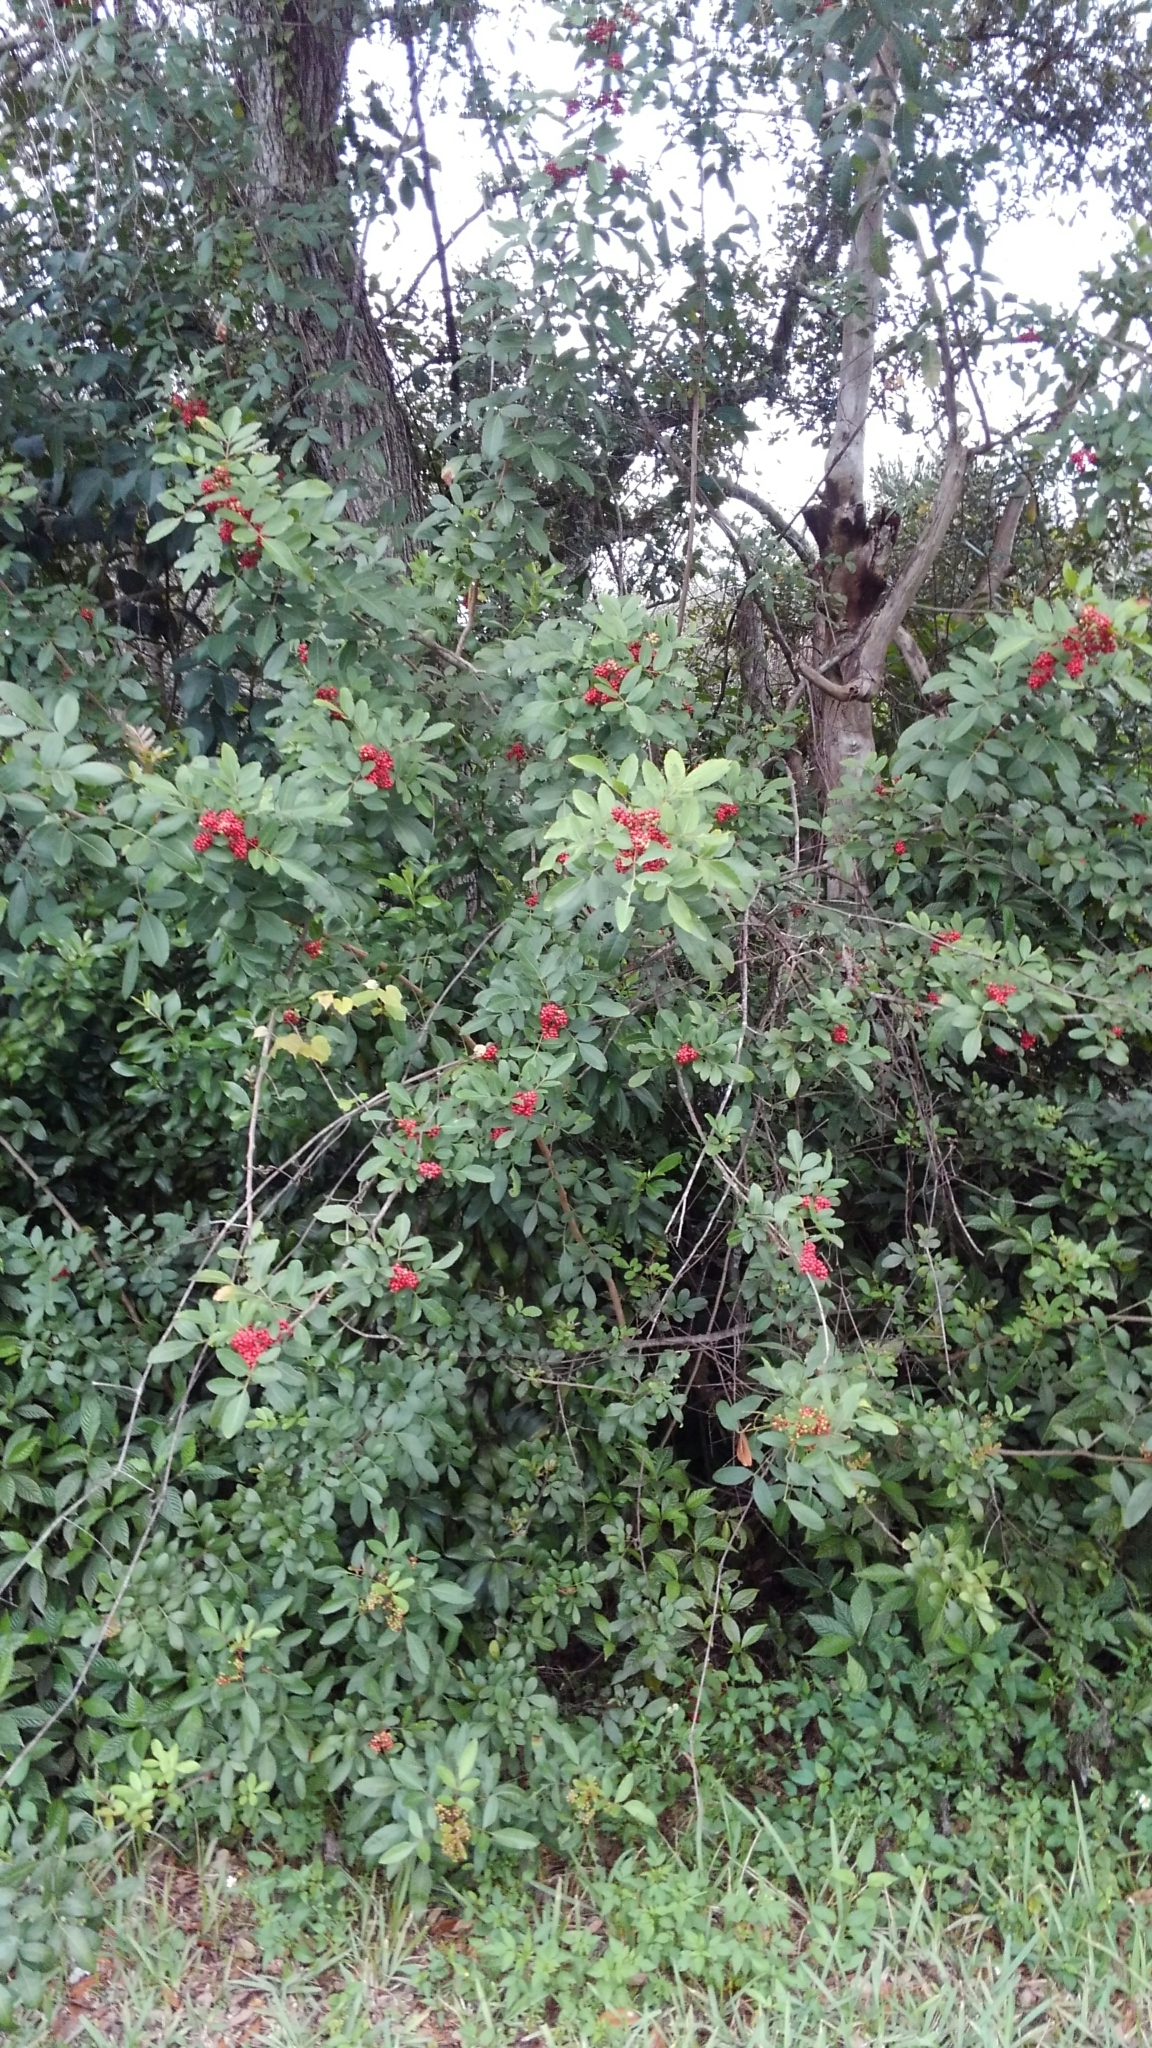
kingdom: Plantae
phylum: Tracheophyta
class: Magnoliopsida
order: Sapindales
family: Anacardiaceae
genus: Schinus
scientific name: Schinus terebinthifolia
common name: Brazilian peppertree
